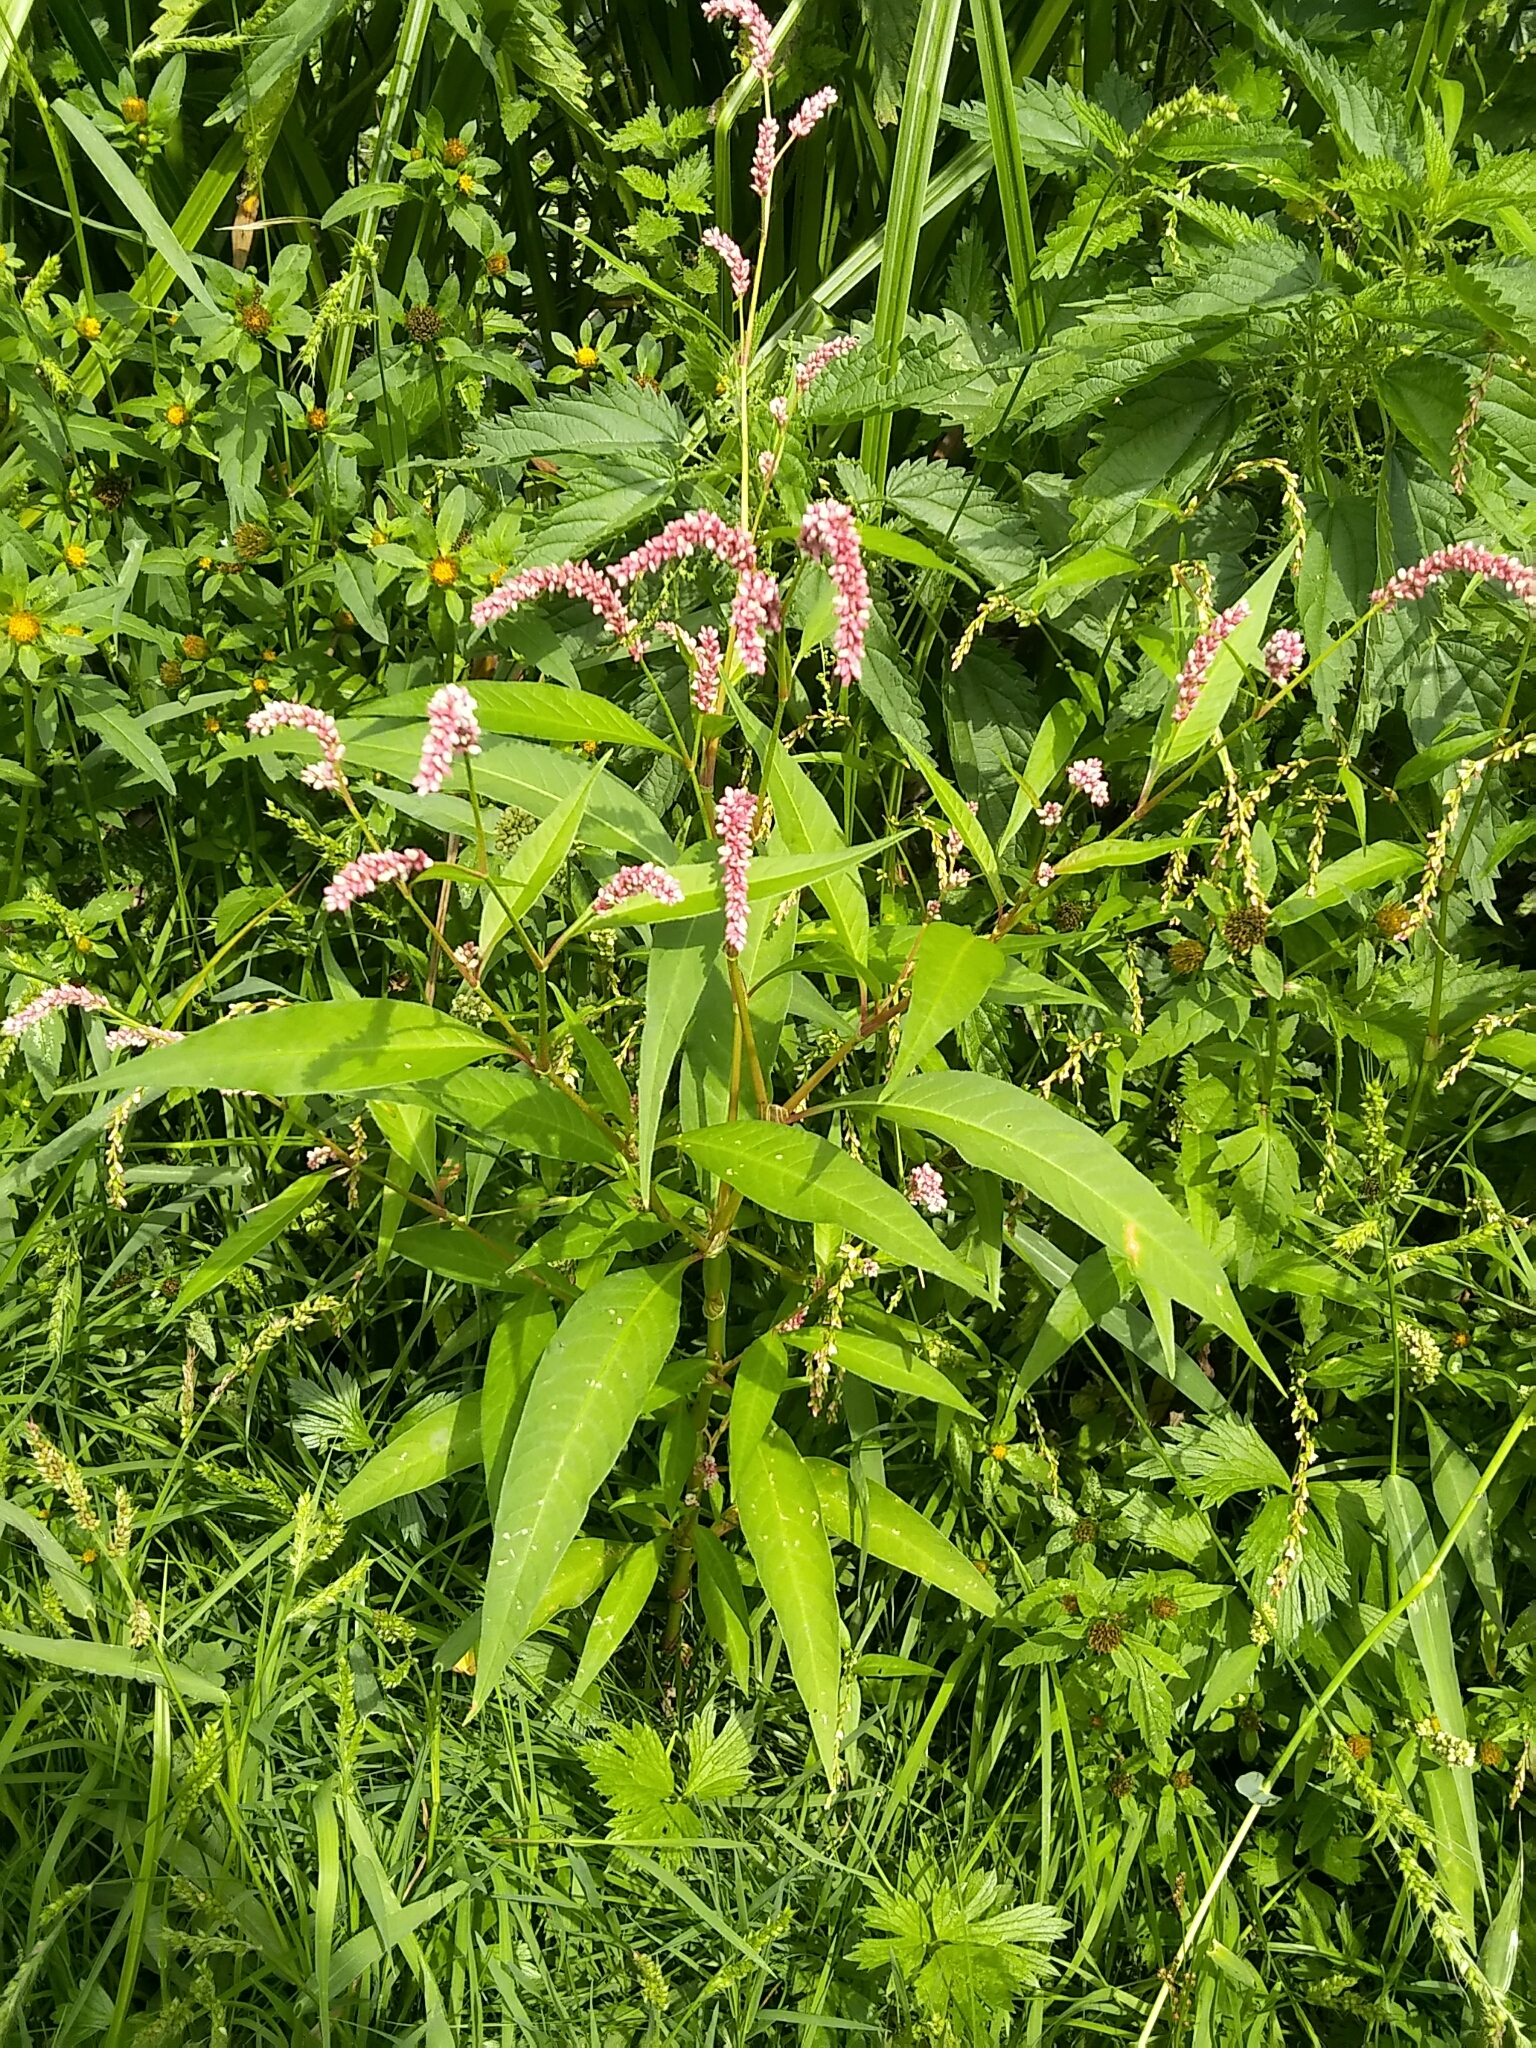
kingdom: Plantae
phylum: Tracheophyta
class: Magnoliopsida
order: Caryophyllales
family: Polygonaceae
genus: Persicaria
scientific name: Persicaria lapathifolia
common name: Curlytop knotweed
